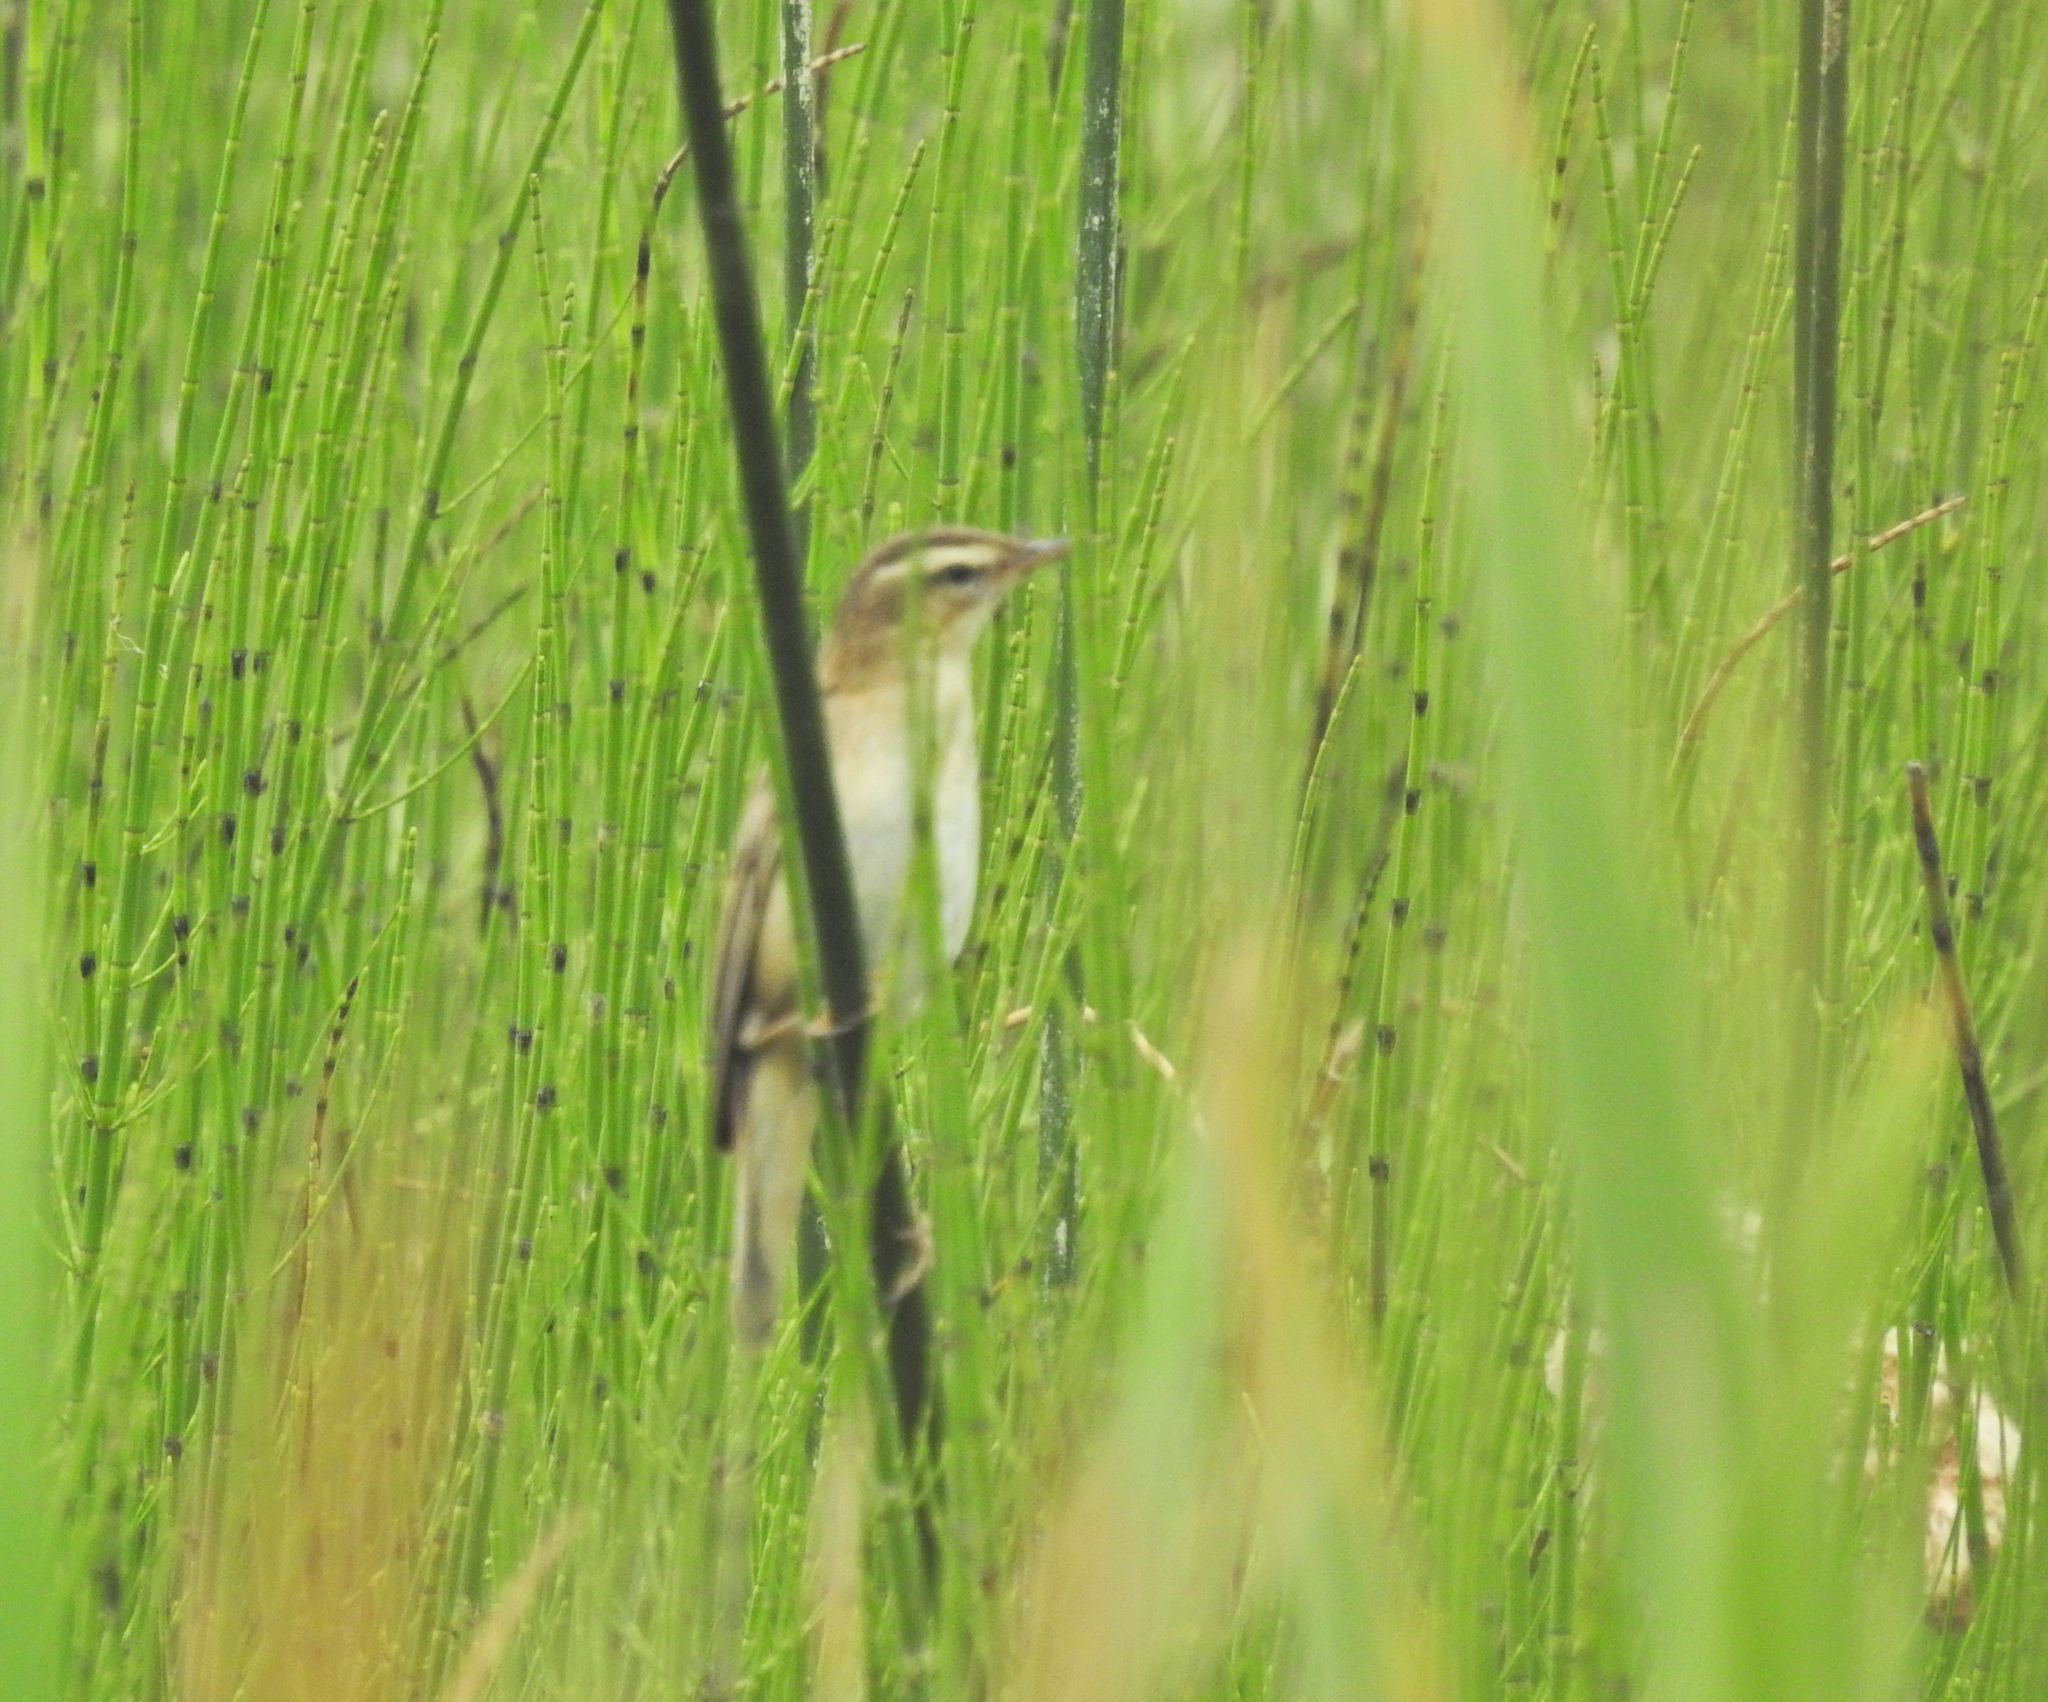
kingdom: Animalia
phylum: Chordata
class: Aves
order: Passeriformes
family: Acrocephalidae
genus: Acrocephalus
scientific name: Acrocephalus schoenobaenus
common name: Sedge warbler
